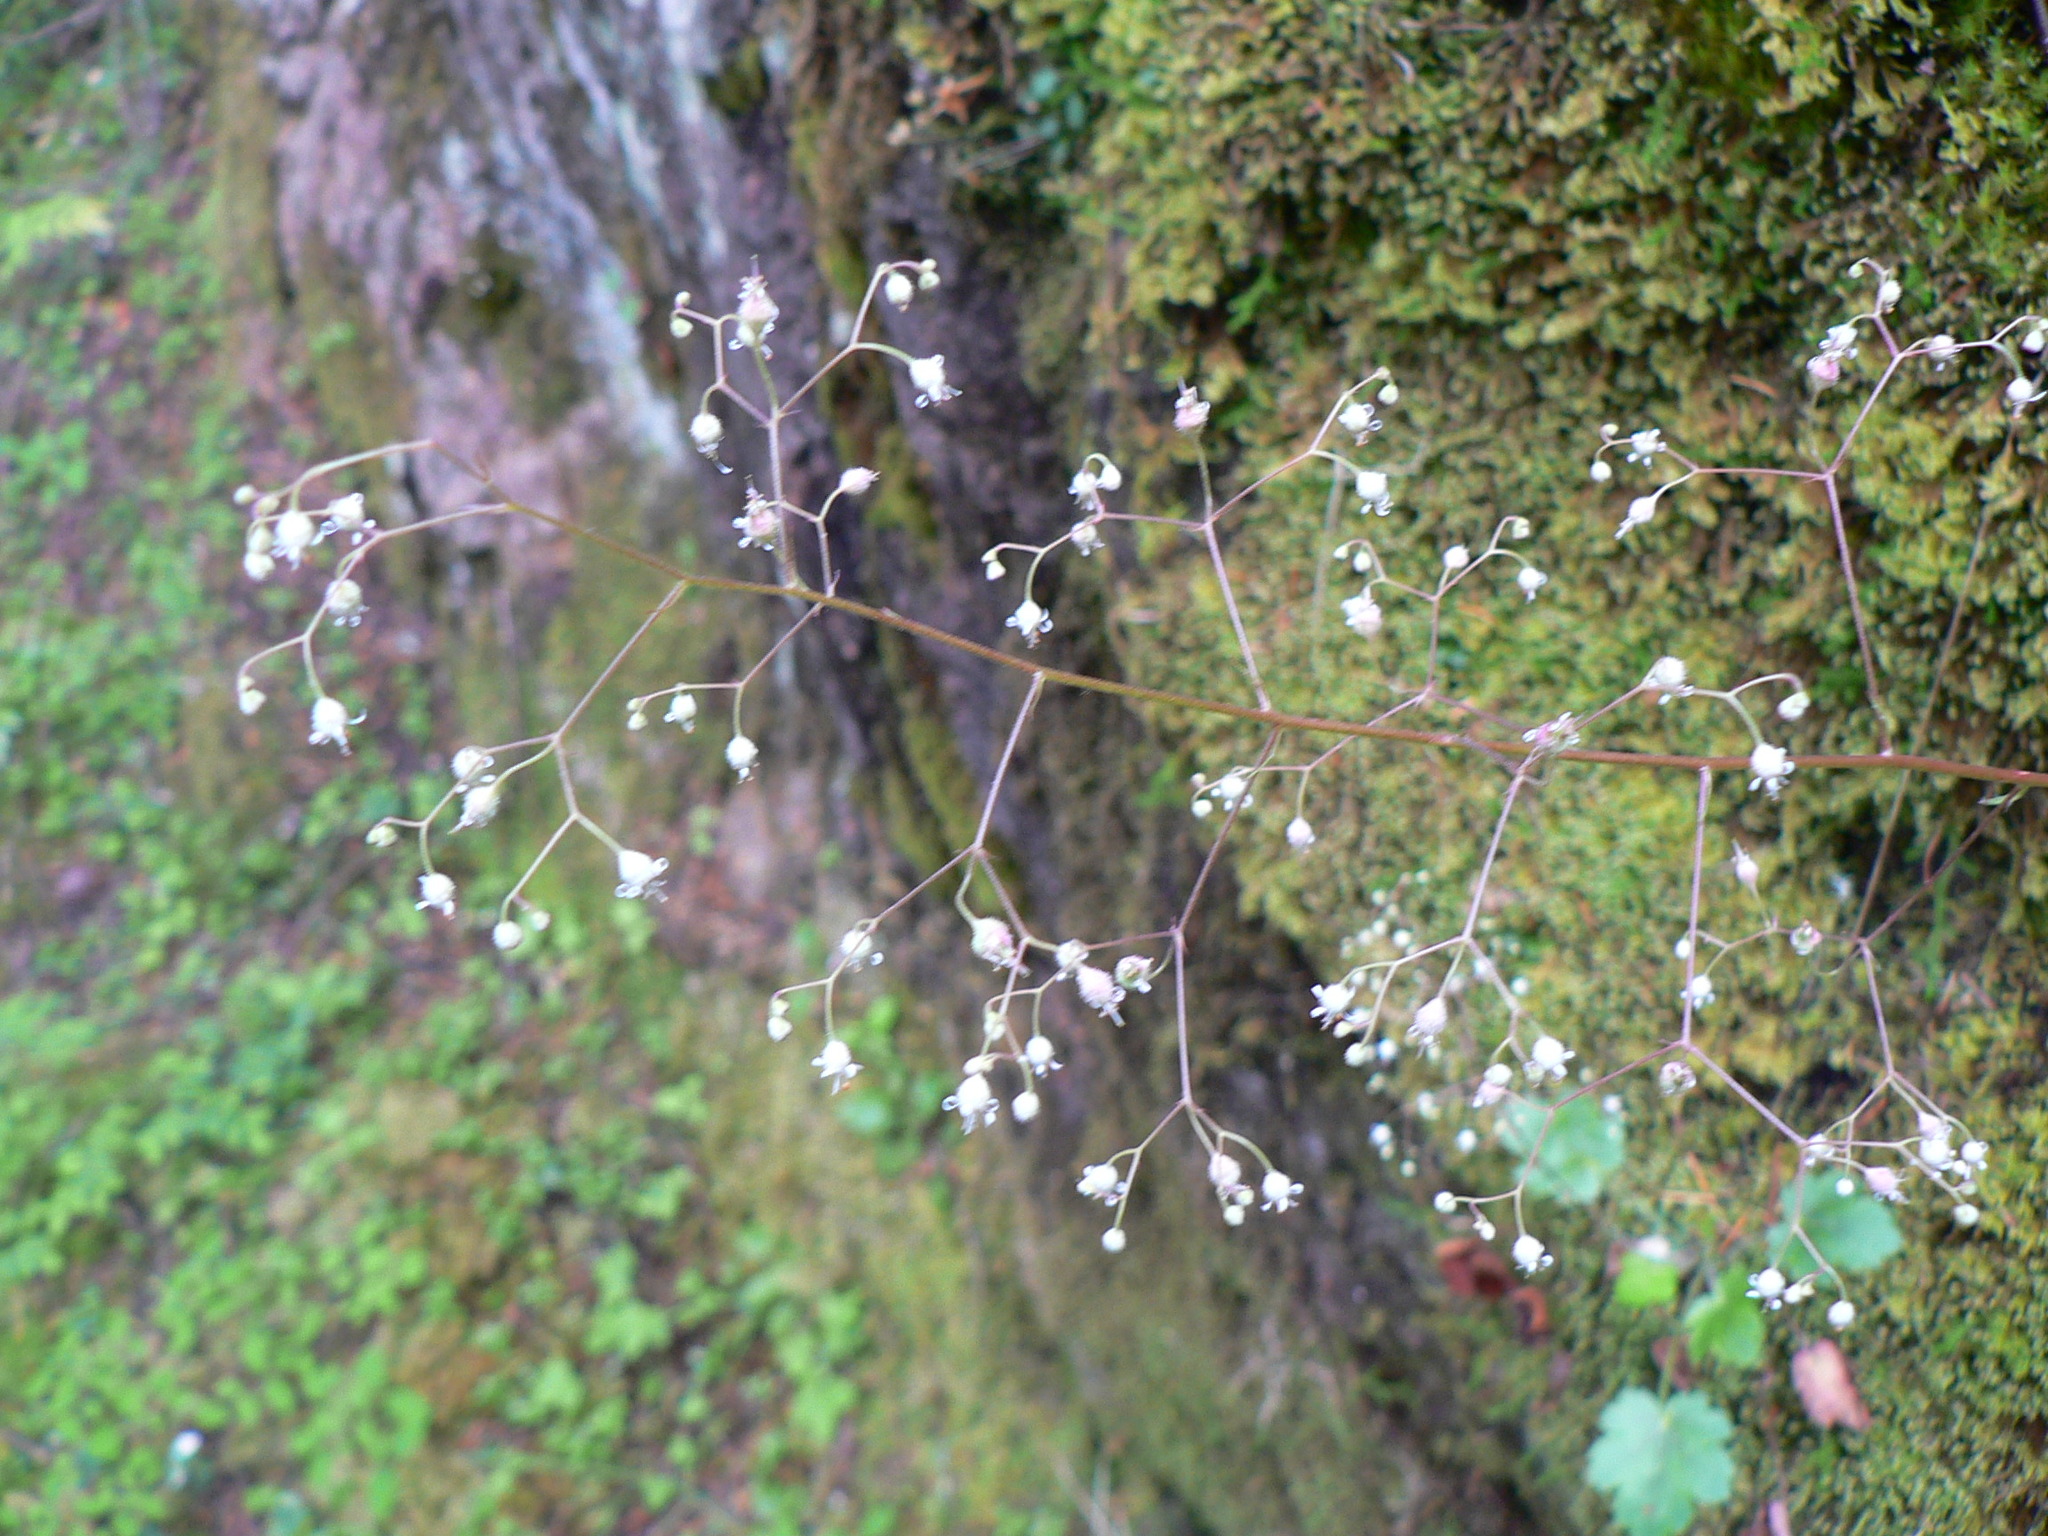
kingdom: Plantae
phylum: Tracheophyta
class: Magnoliopsida
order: Saxifragales
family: Saxifragaceae
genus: Heuchera
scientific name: Heuchera micrantha
